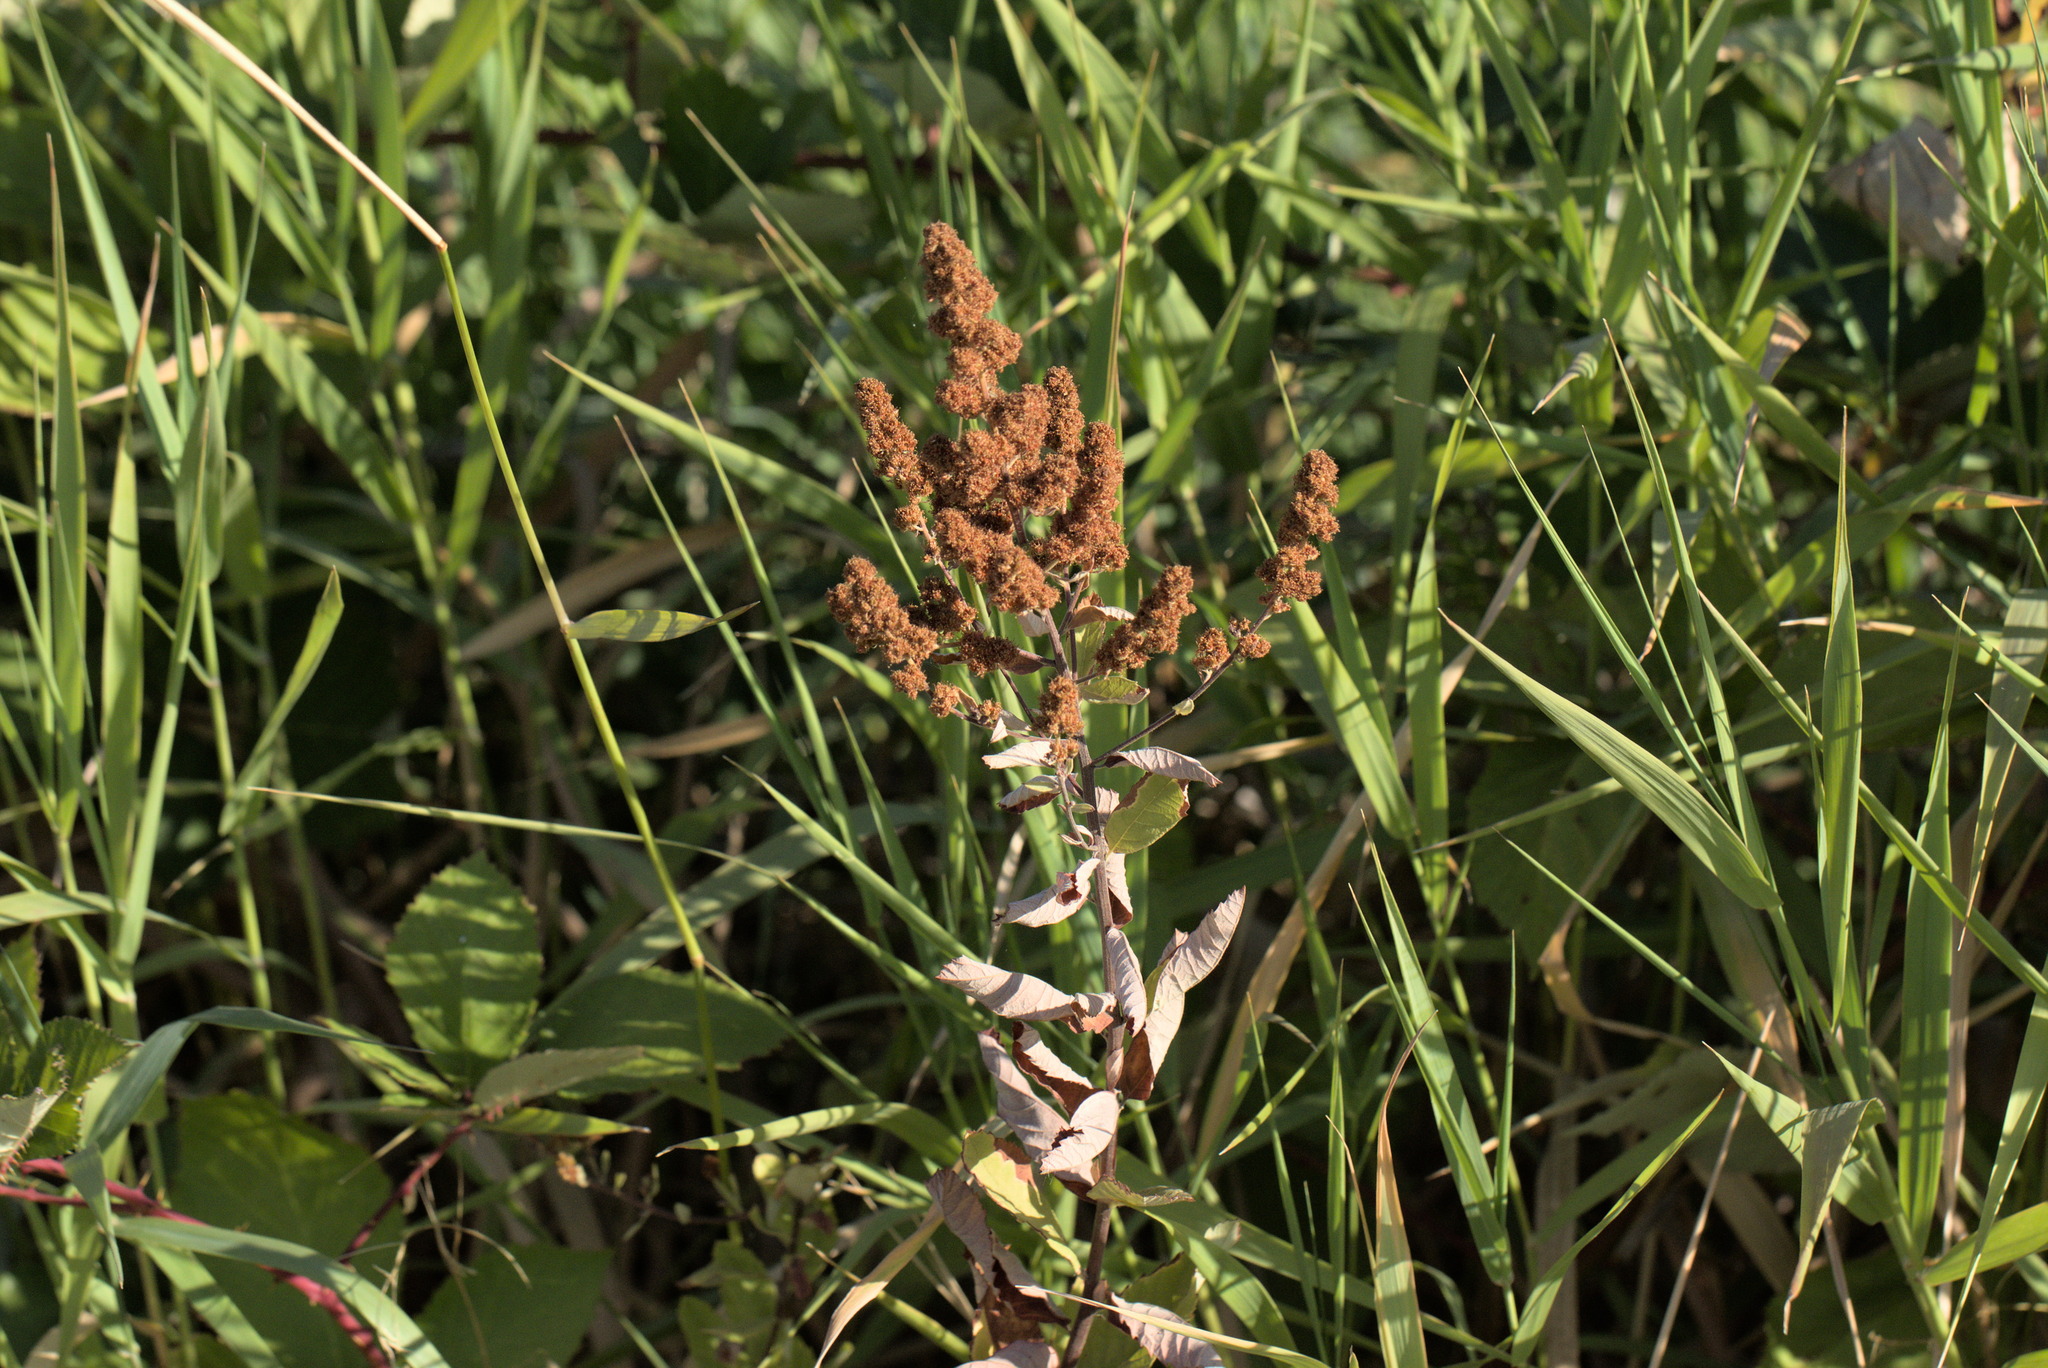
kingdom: Plantae
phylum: Tracheophyta
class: Magnoliopsida
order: Rosales
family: Rosaceae
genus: Spiraea
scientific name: Spiraea douglasii
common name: Steeplebush
